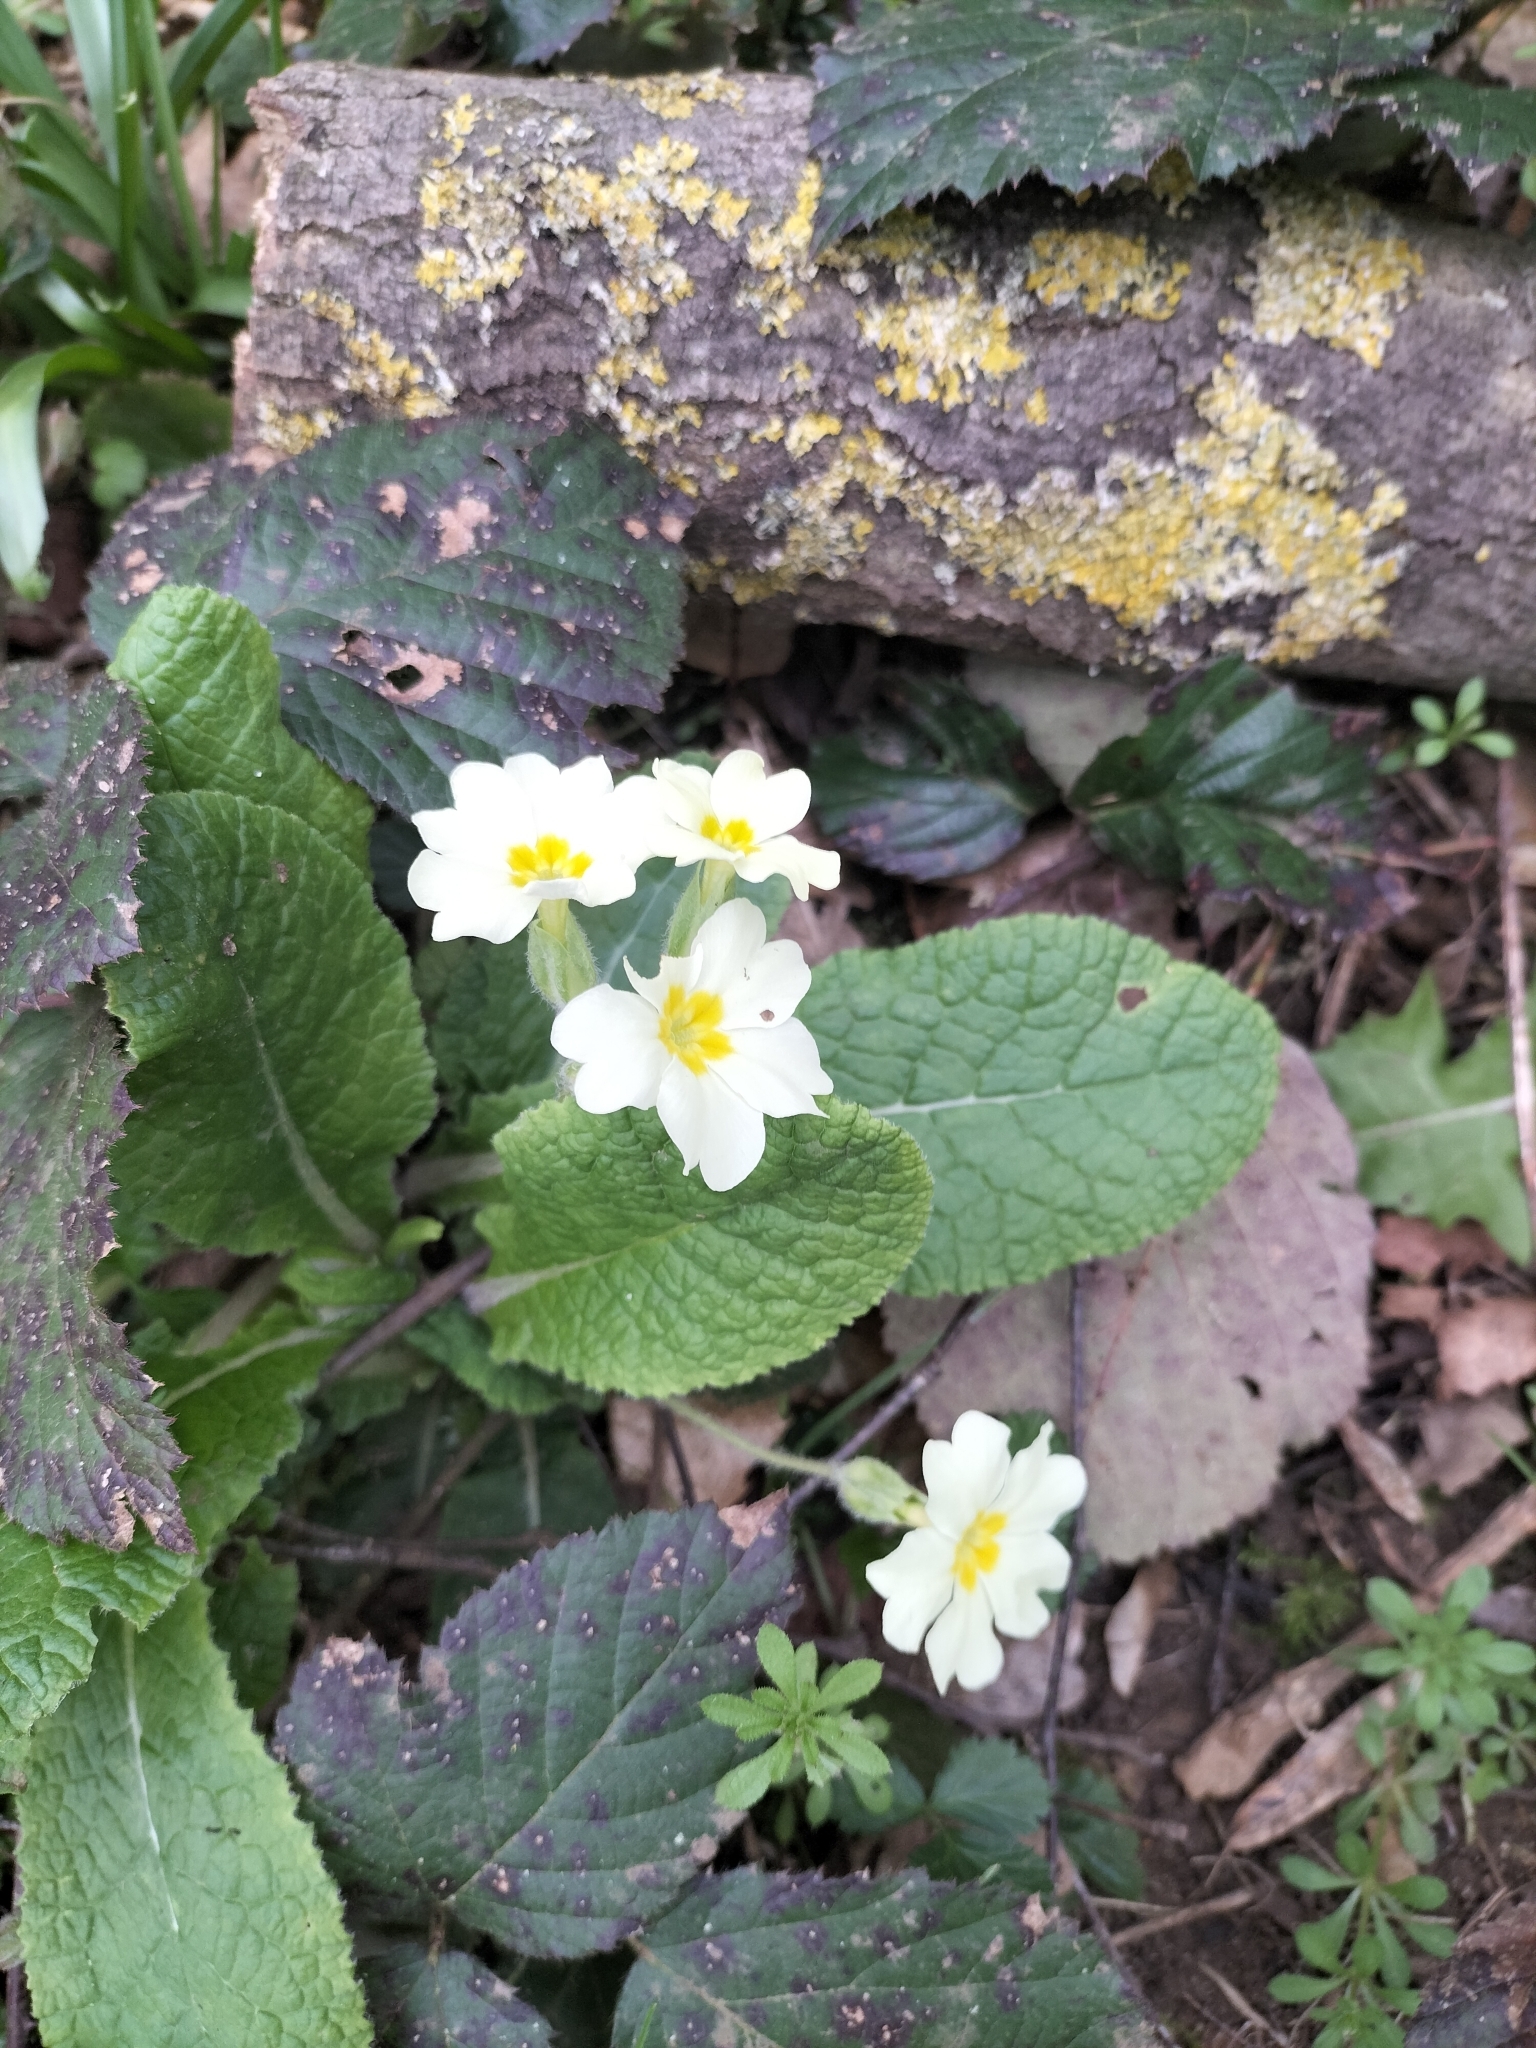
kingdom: Plantae
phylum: Tracheophyta
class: Magnoliopsida
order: Ericales
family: Primulaceae
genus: Primula
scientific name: Primula vulgaris
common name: Primrose
